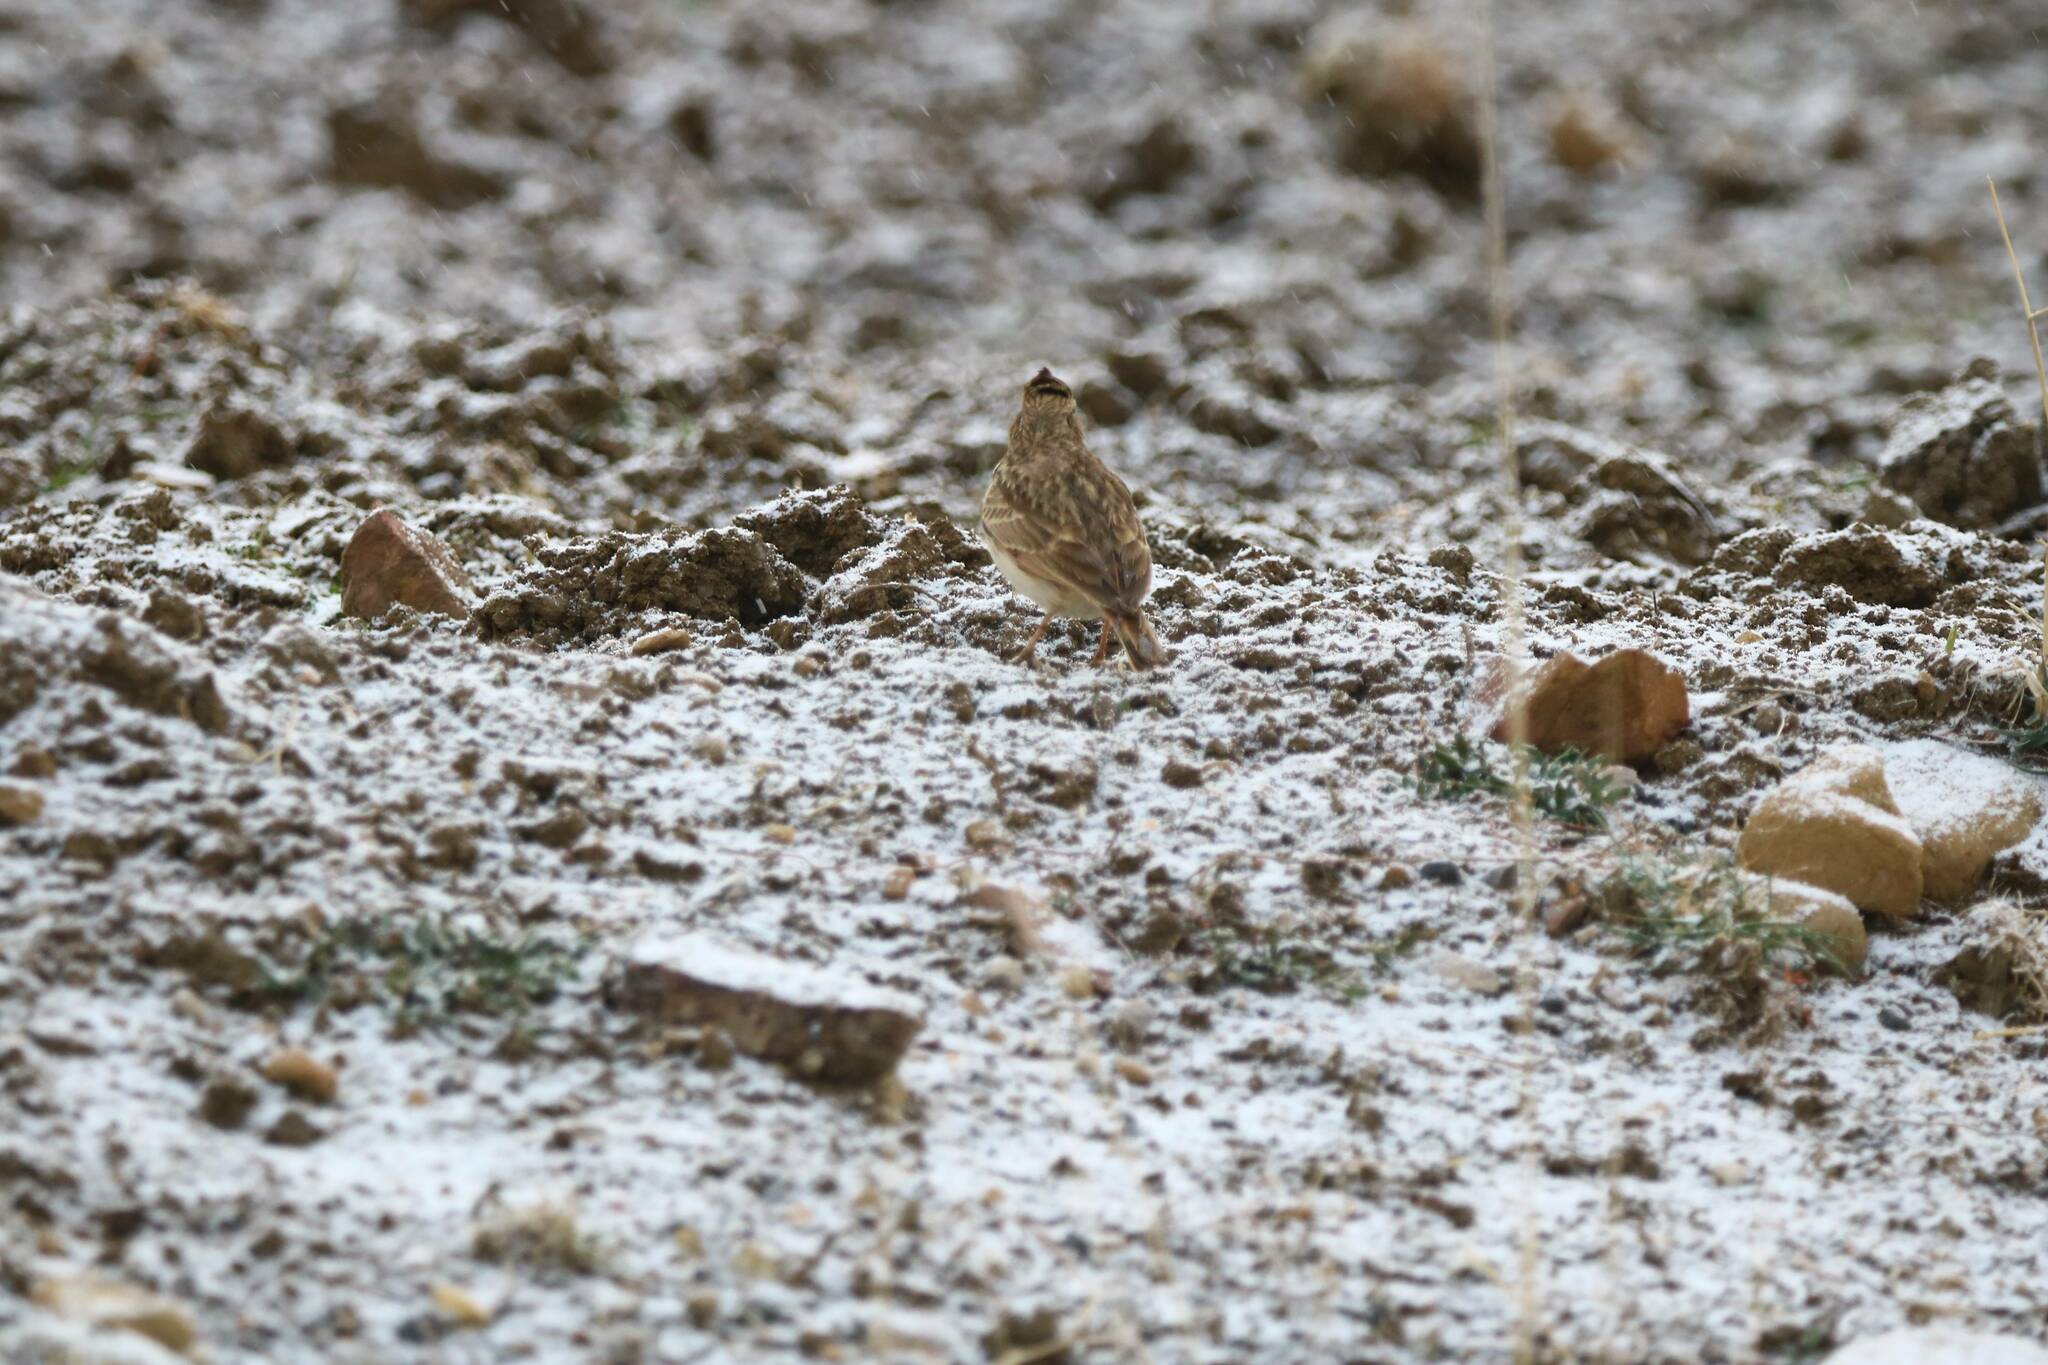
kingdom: Animalia
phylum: Chordata
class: Aves
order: Passeriformes
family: Alaudidae
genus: Galerida
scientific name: Galerida theklae
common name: Thekla lark
